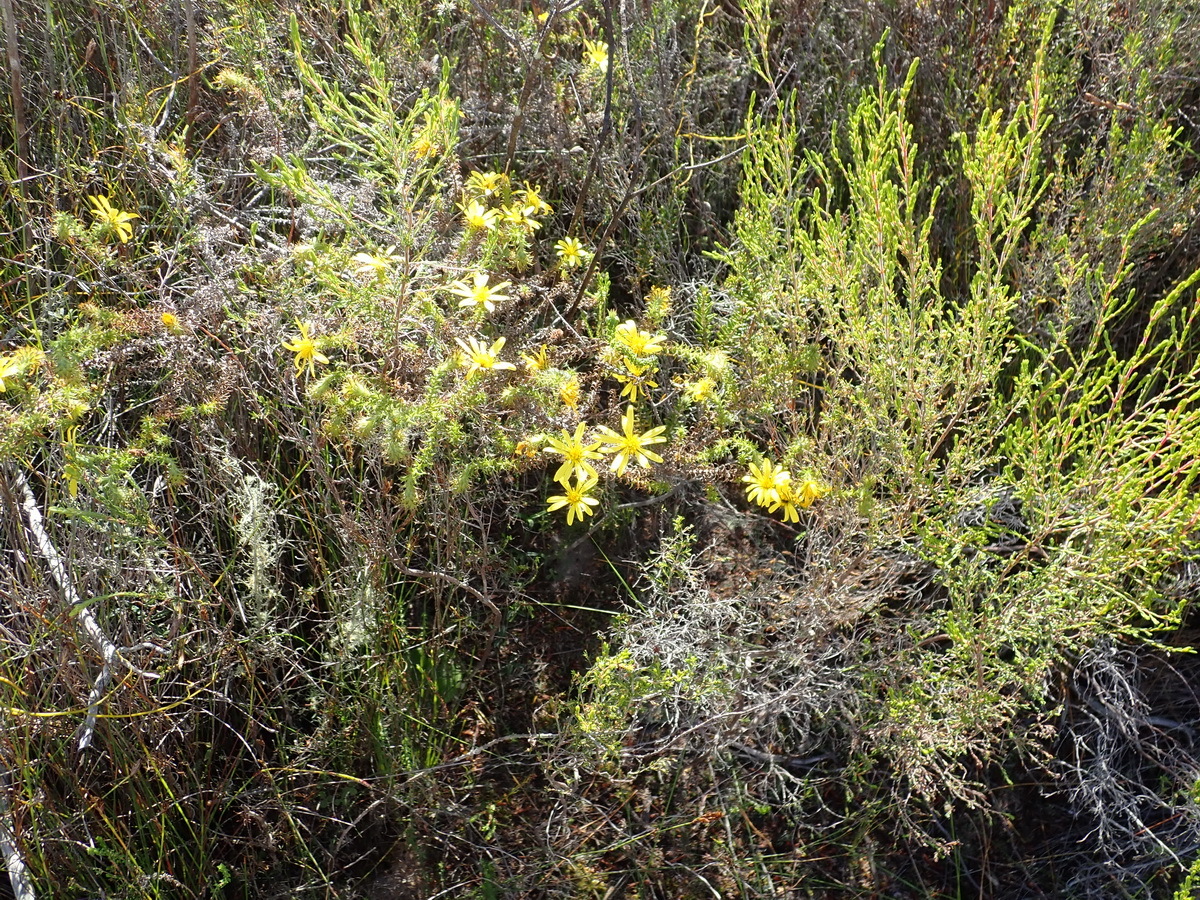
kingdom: Plantae
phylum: Tracheophyta
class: Magnoliopsida
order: Asterales
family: Asteraceae
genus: Cullumia
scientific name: Cullumia decurrens
